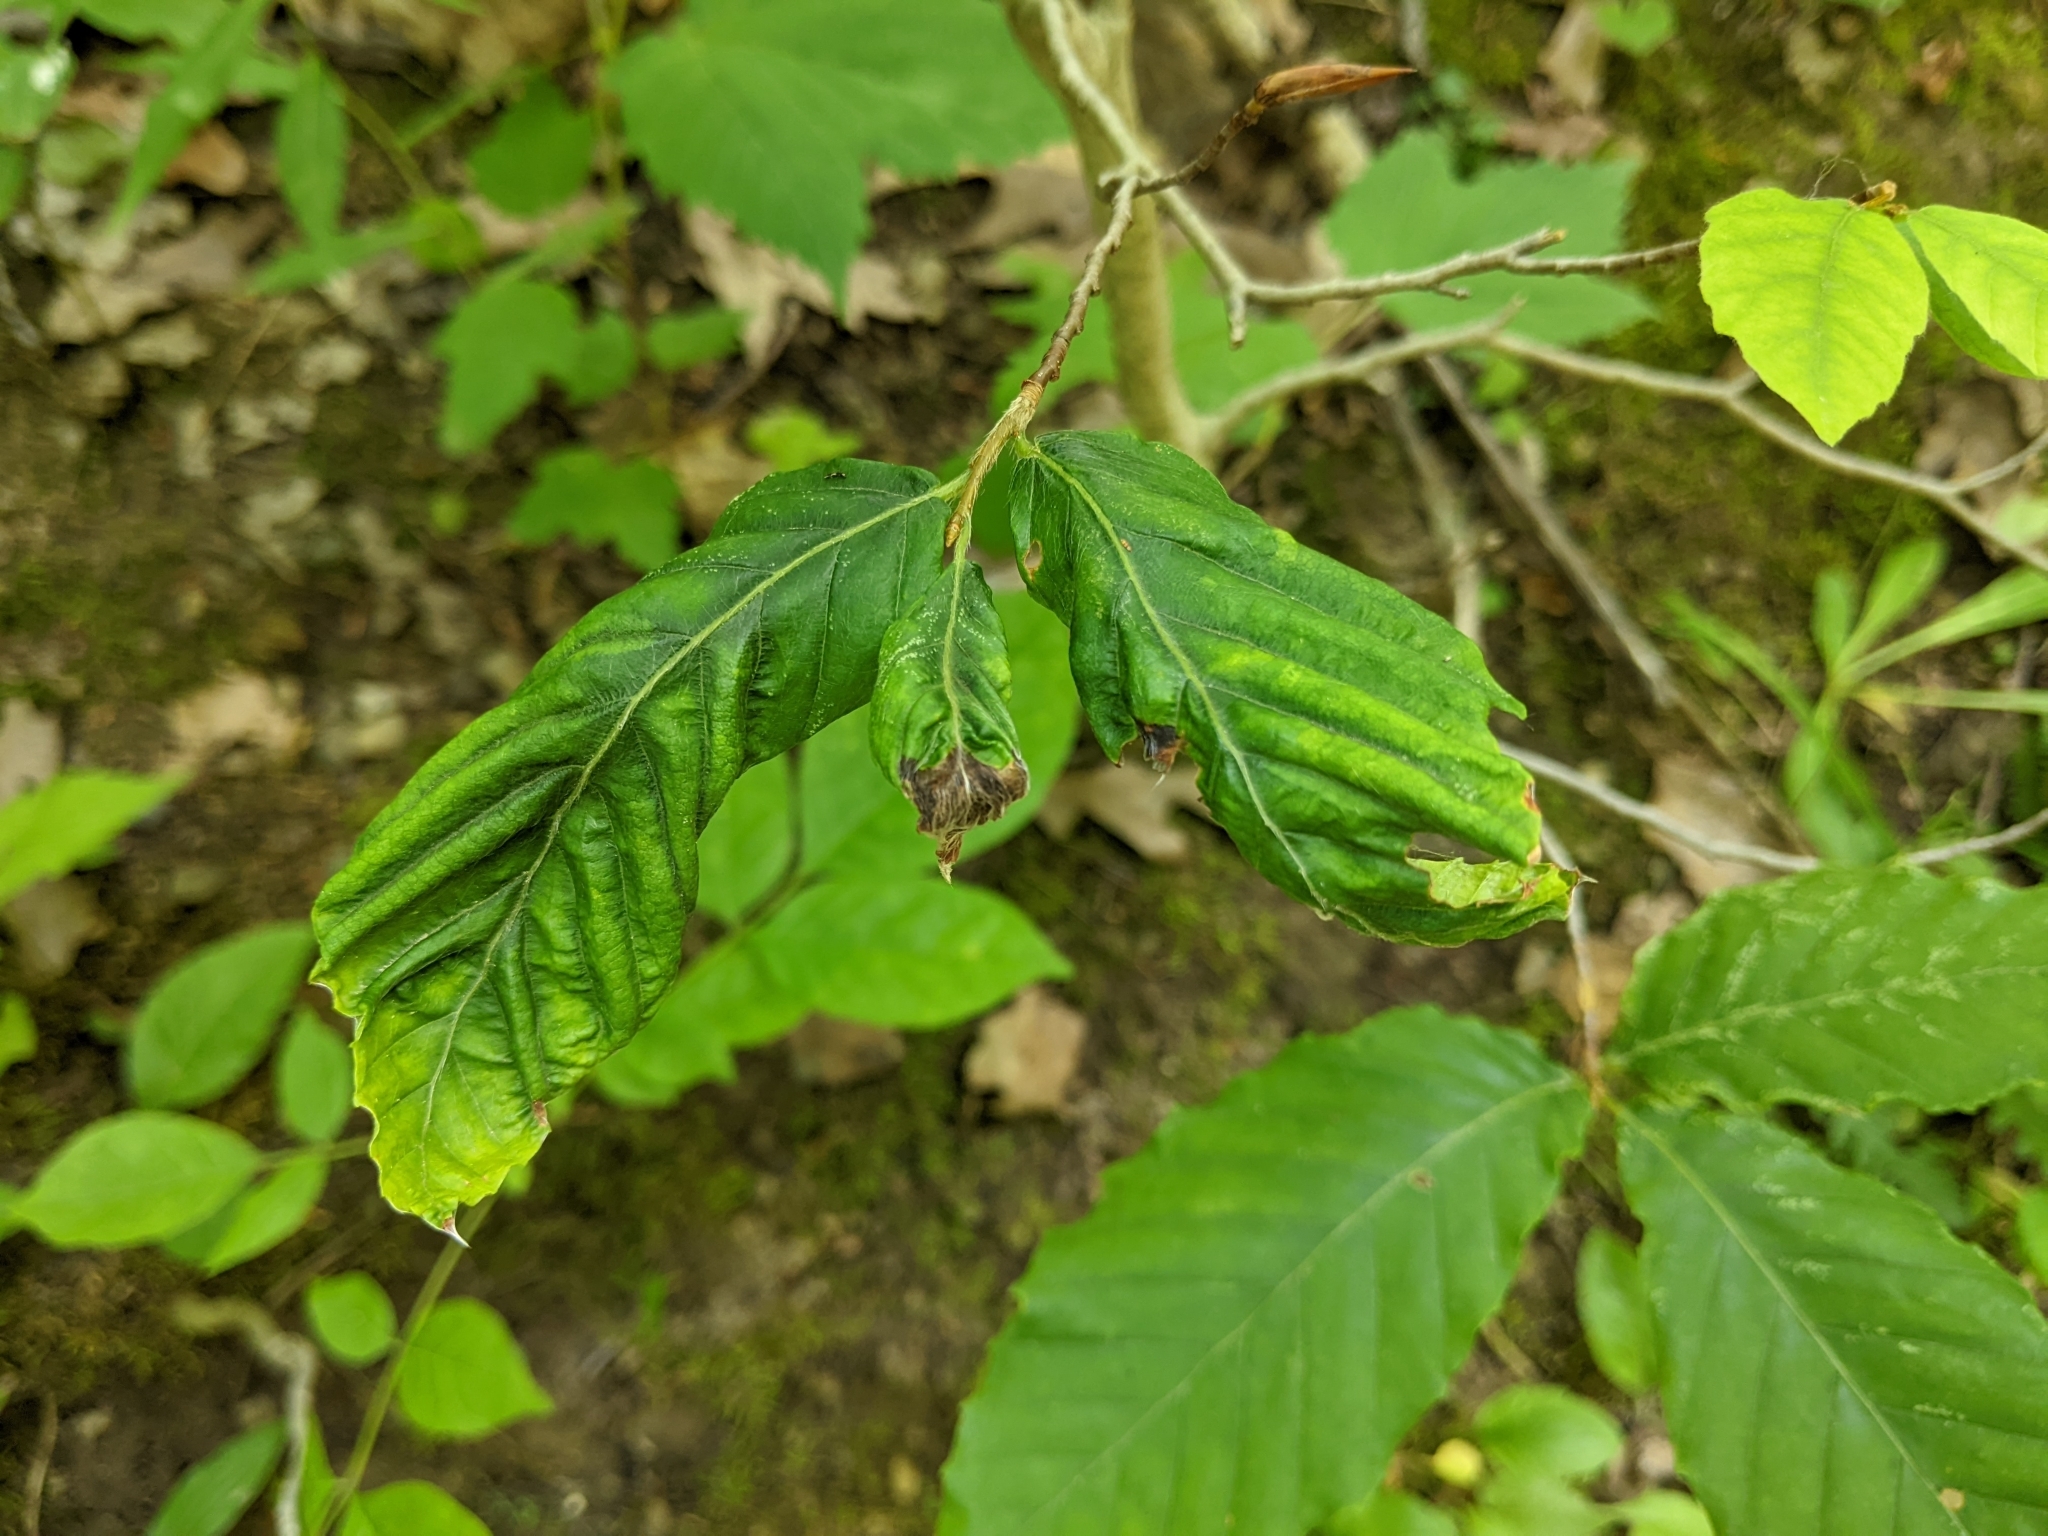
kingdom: Animalia
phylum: Nematoda
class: Chromadorea
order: Rhabditida
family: Anguinidae
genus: Litylenchus
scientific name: Litylenchus crenatae
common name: Beech leaf disease
